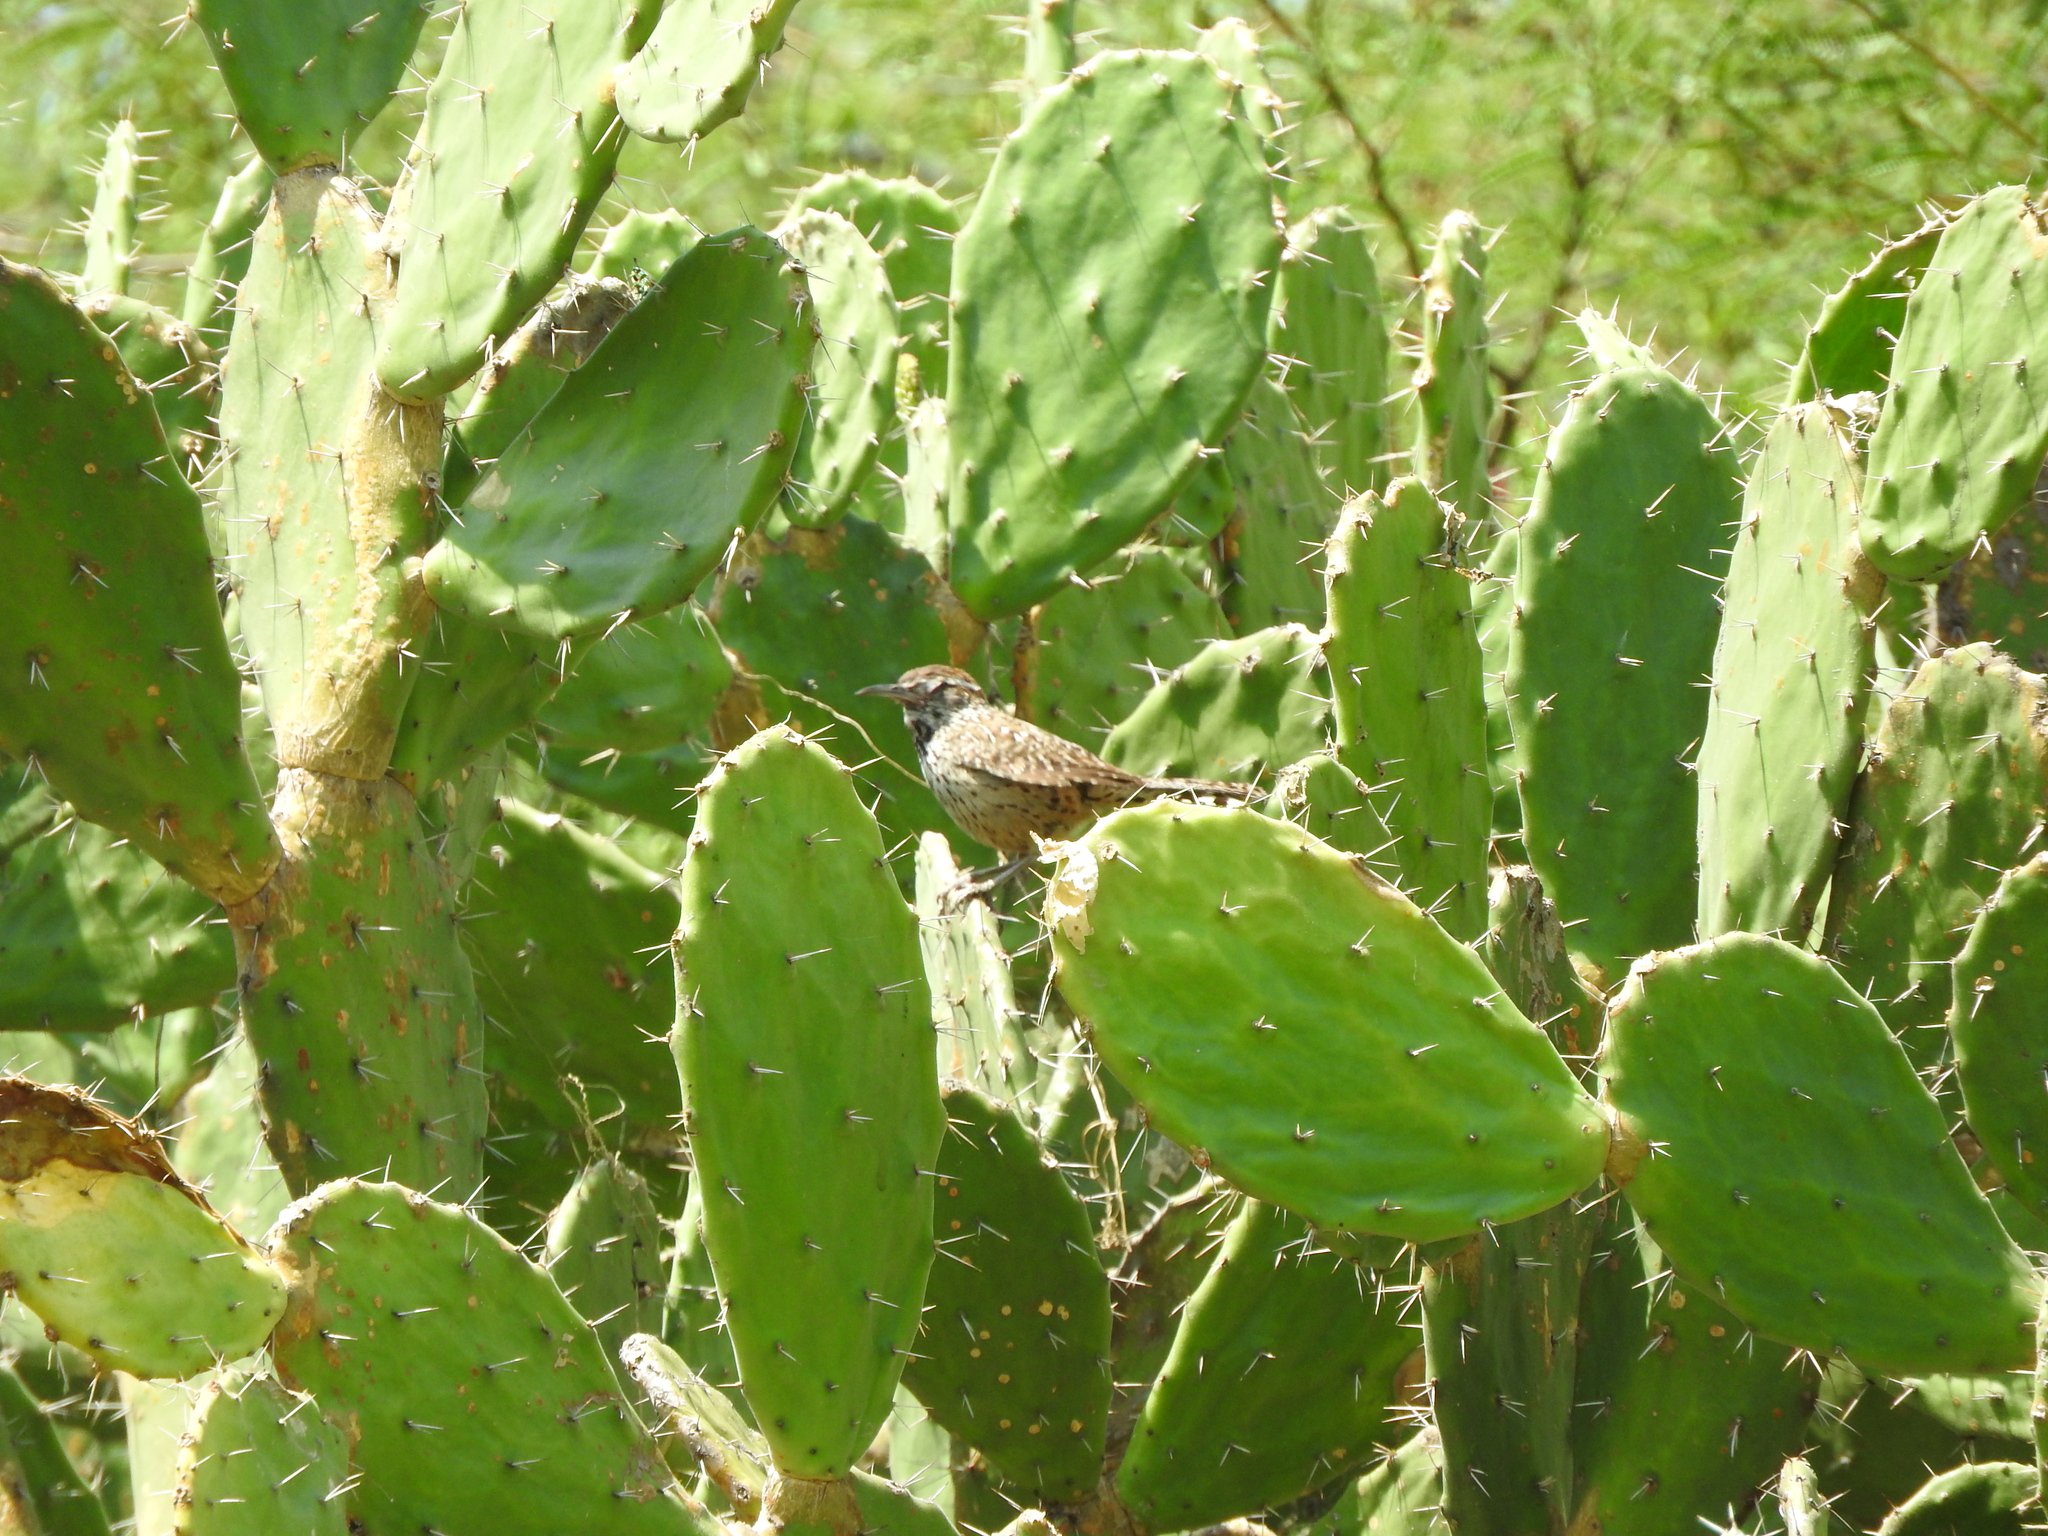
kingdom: Animalia
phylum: Chordata
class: Aves
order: Passeriformes
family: Troglodytidae
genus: Campylorhynchus
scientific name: Campylorhynchus brunneicapillus
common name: Cactus wren
